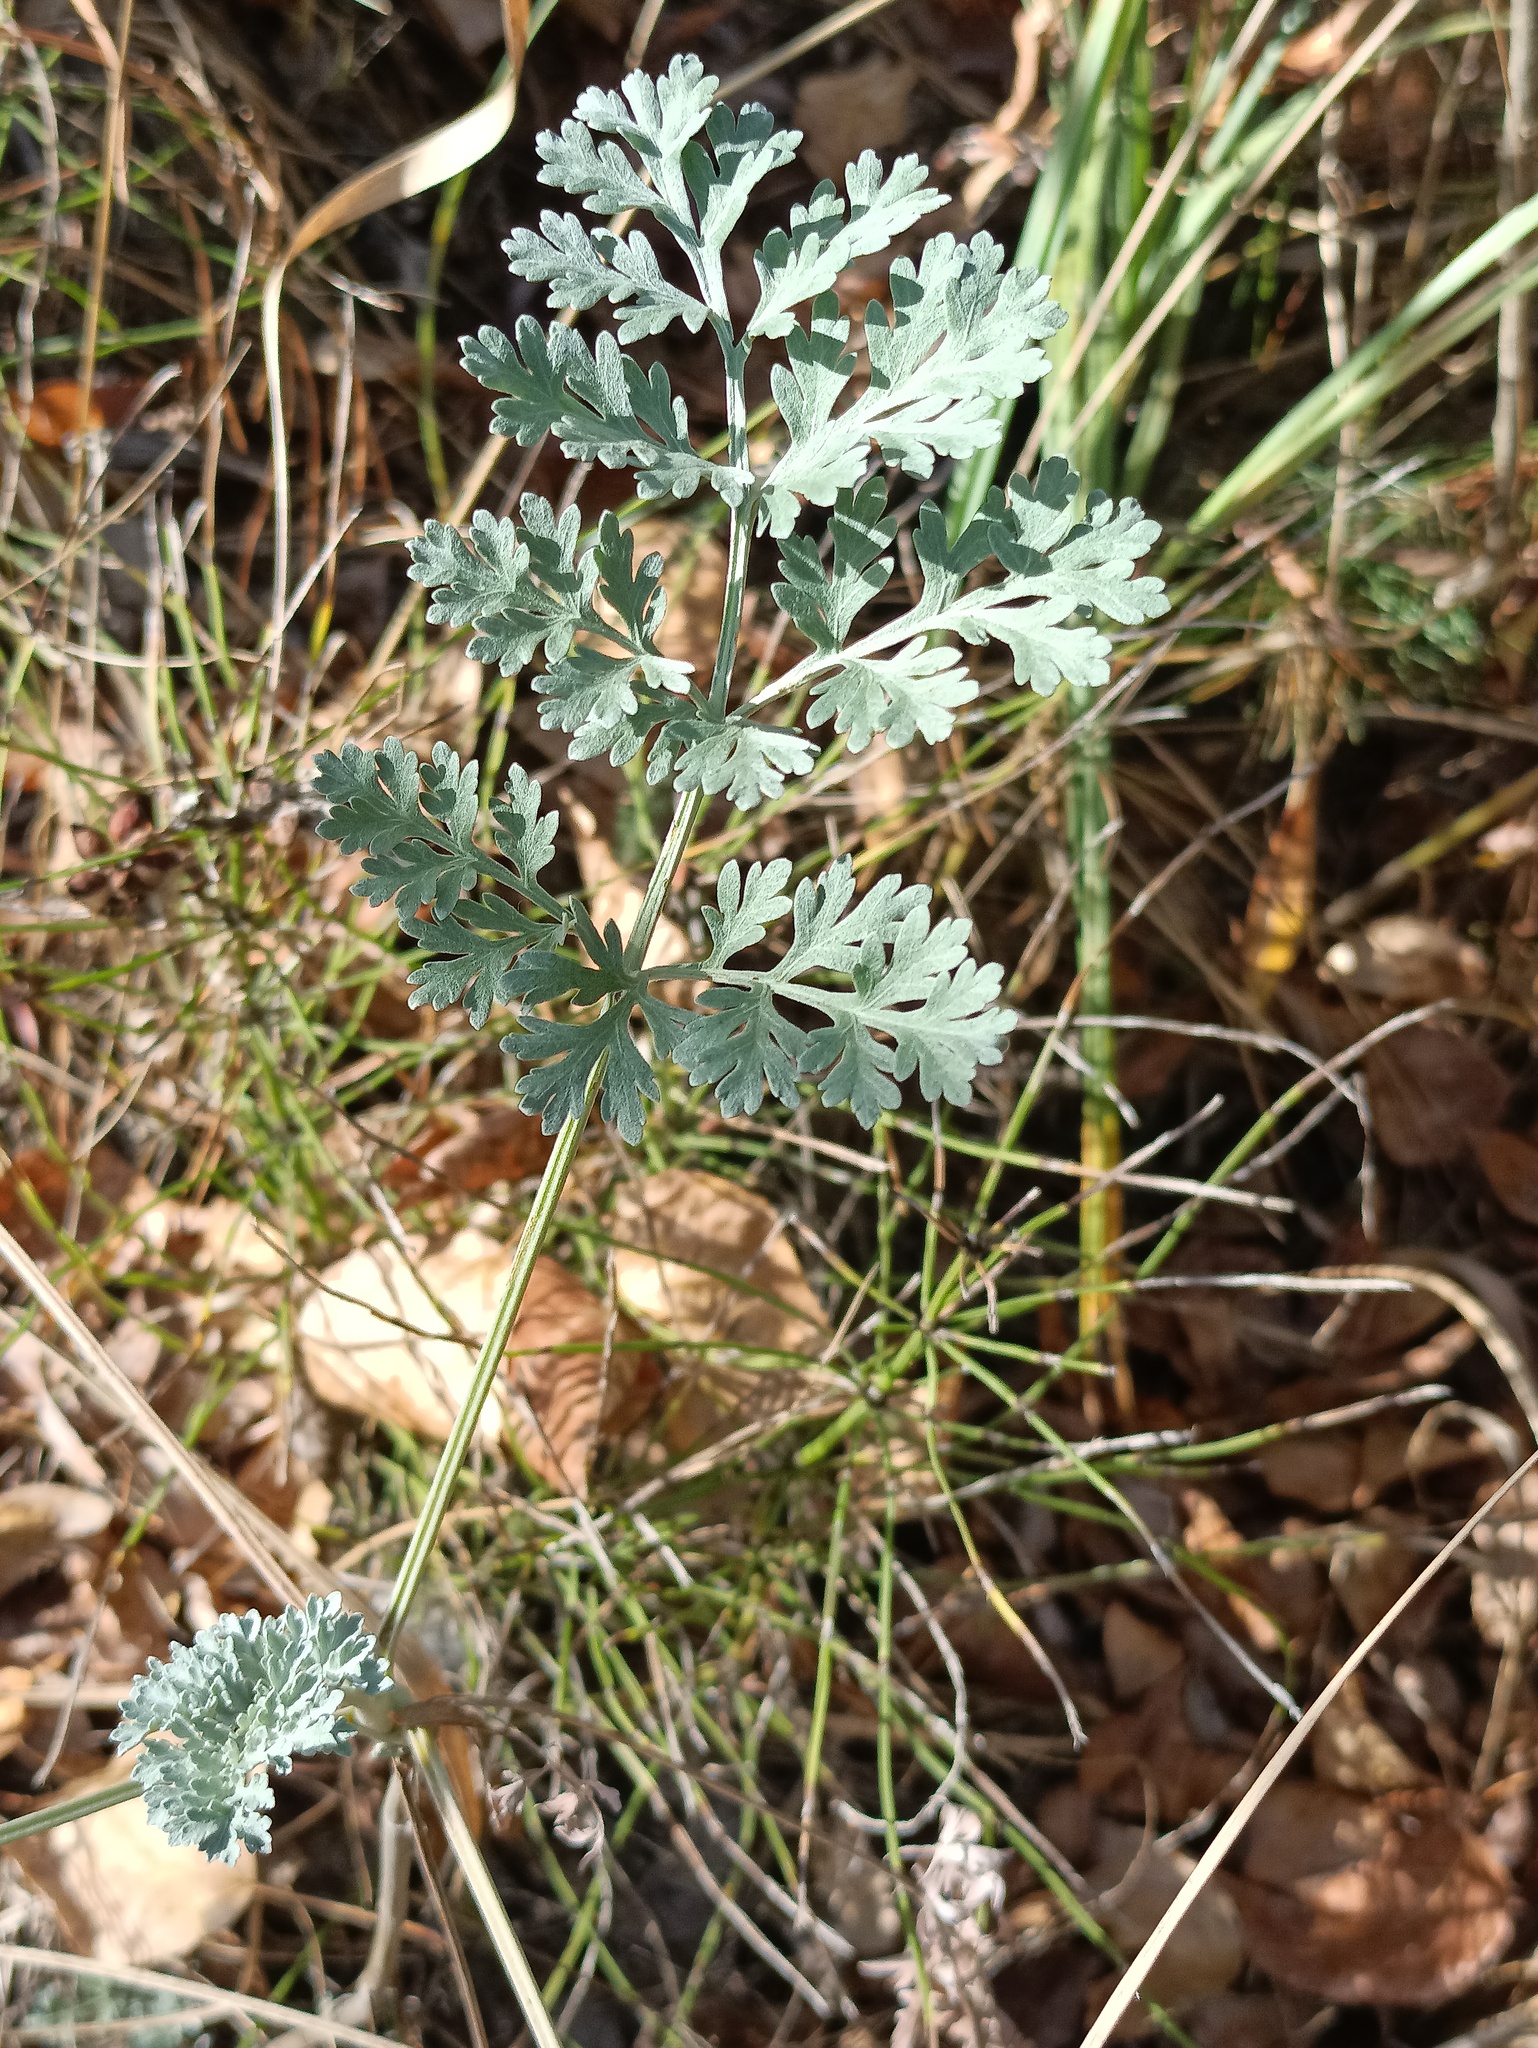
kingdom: Plantae
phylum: Tracheophyta
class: Magnoliopsida
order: Asterales
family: Asteraceae
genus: Artemisia
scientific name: Artemisia absinthium
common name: Wormwood
